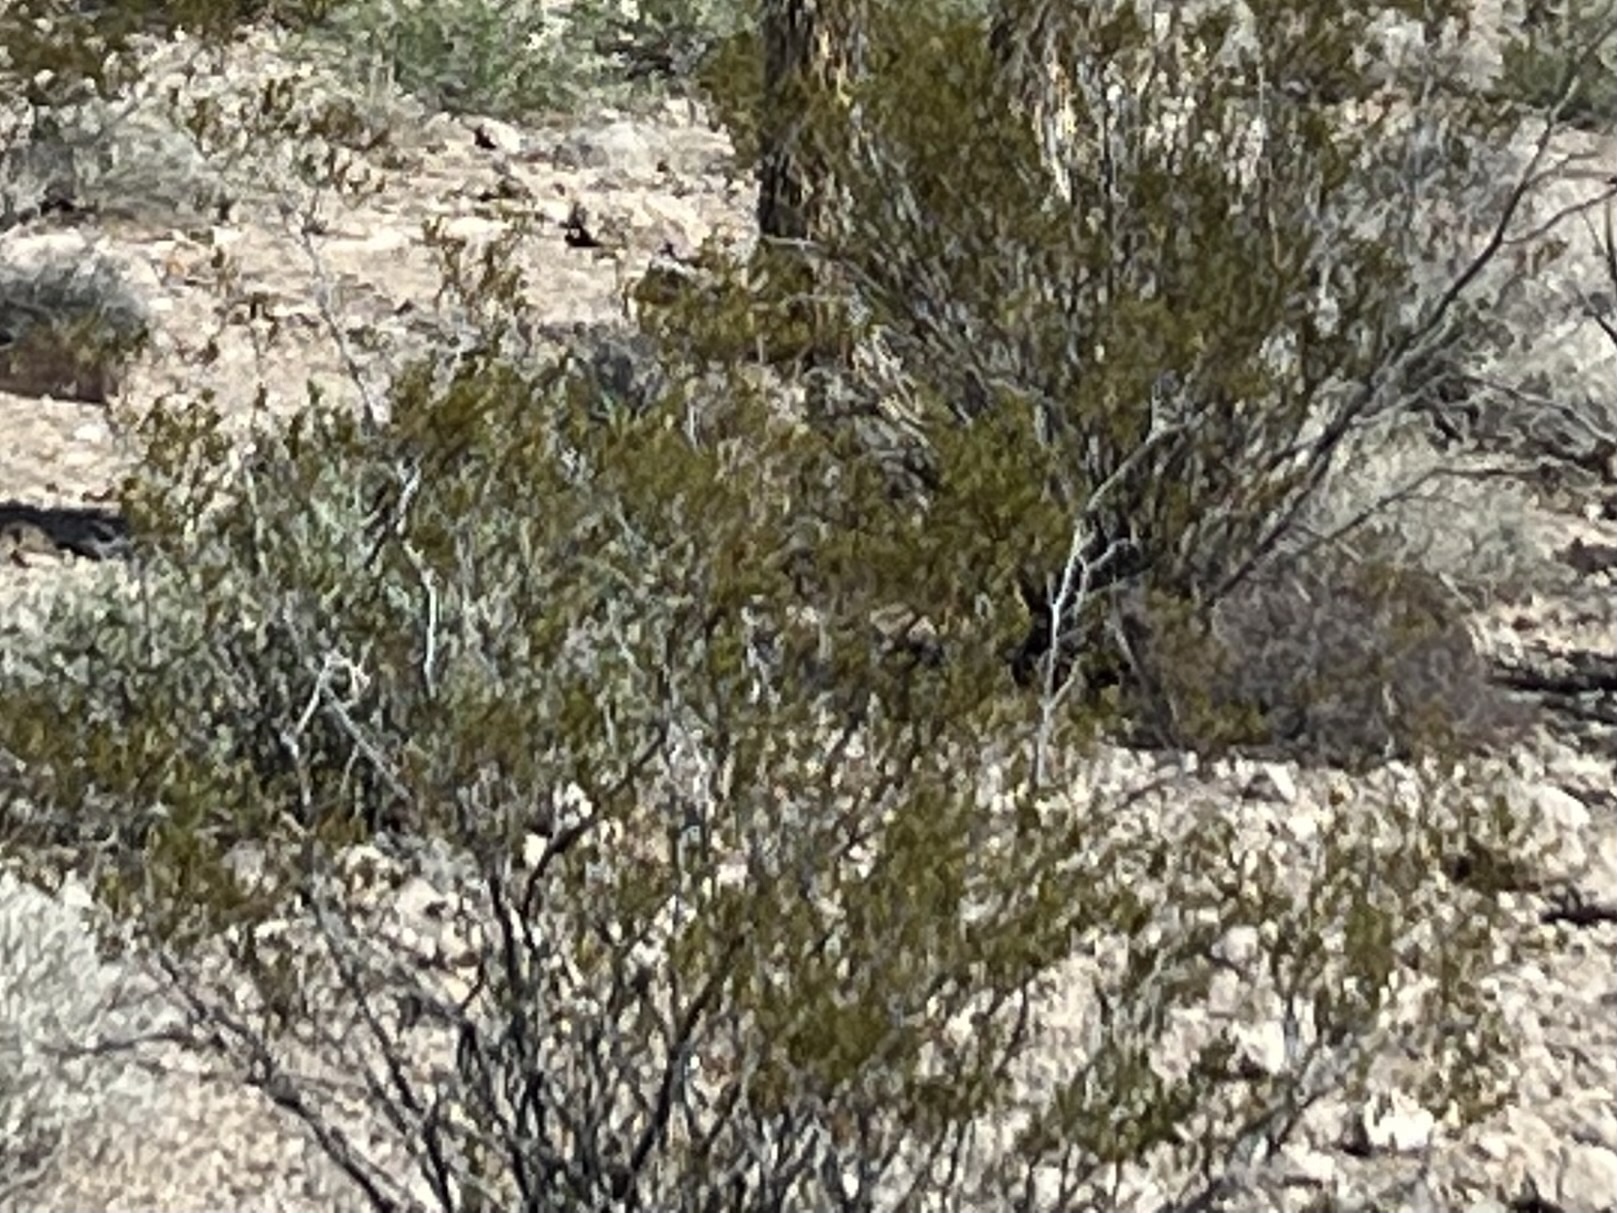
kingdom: Plantae
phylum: Tracheophyta
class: Magnoliopsida
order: Zygophyllales
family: Zygophyllaceae
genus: Larrea
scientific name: Larrea tridentata
